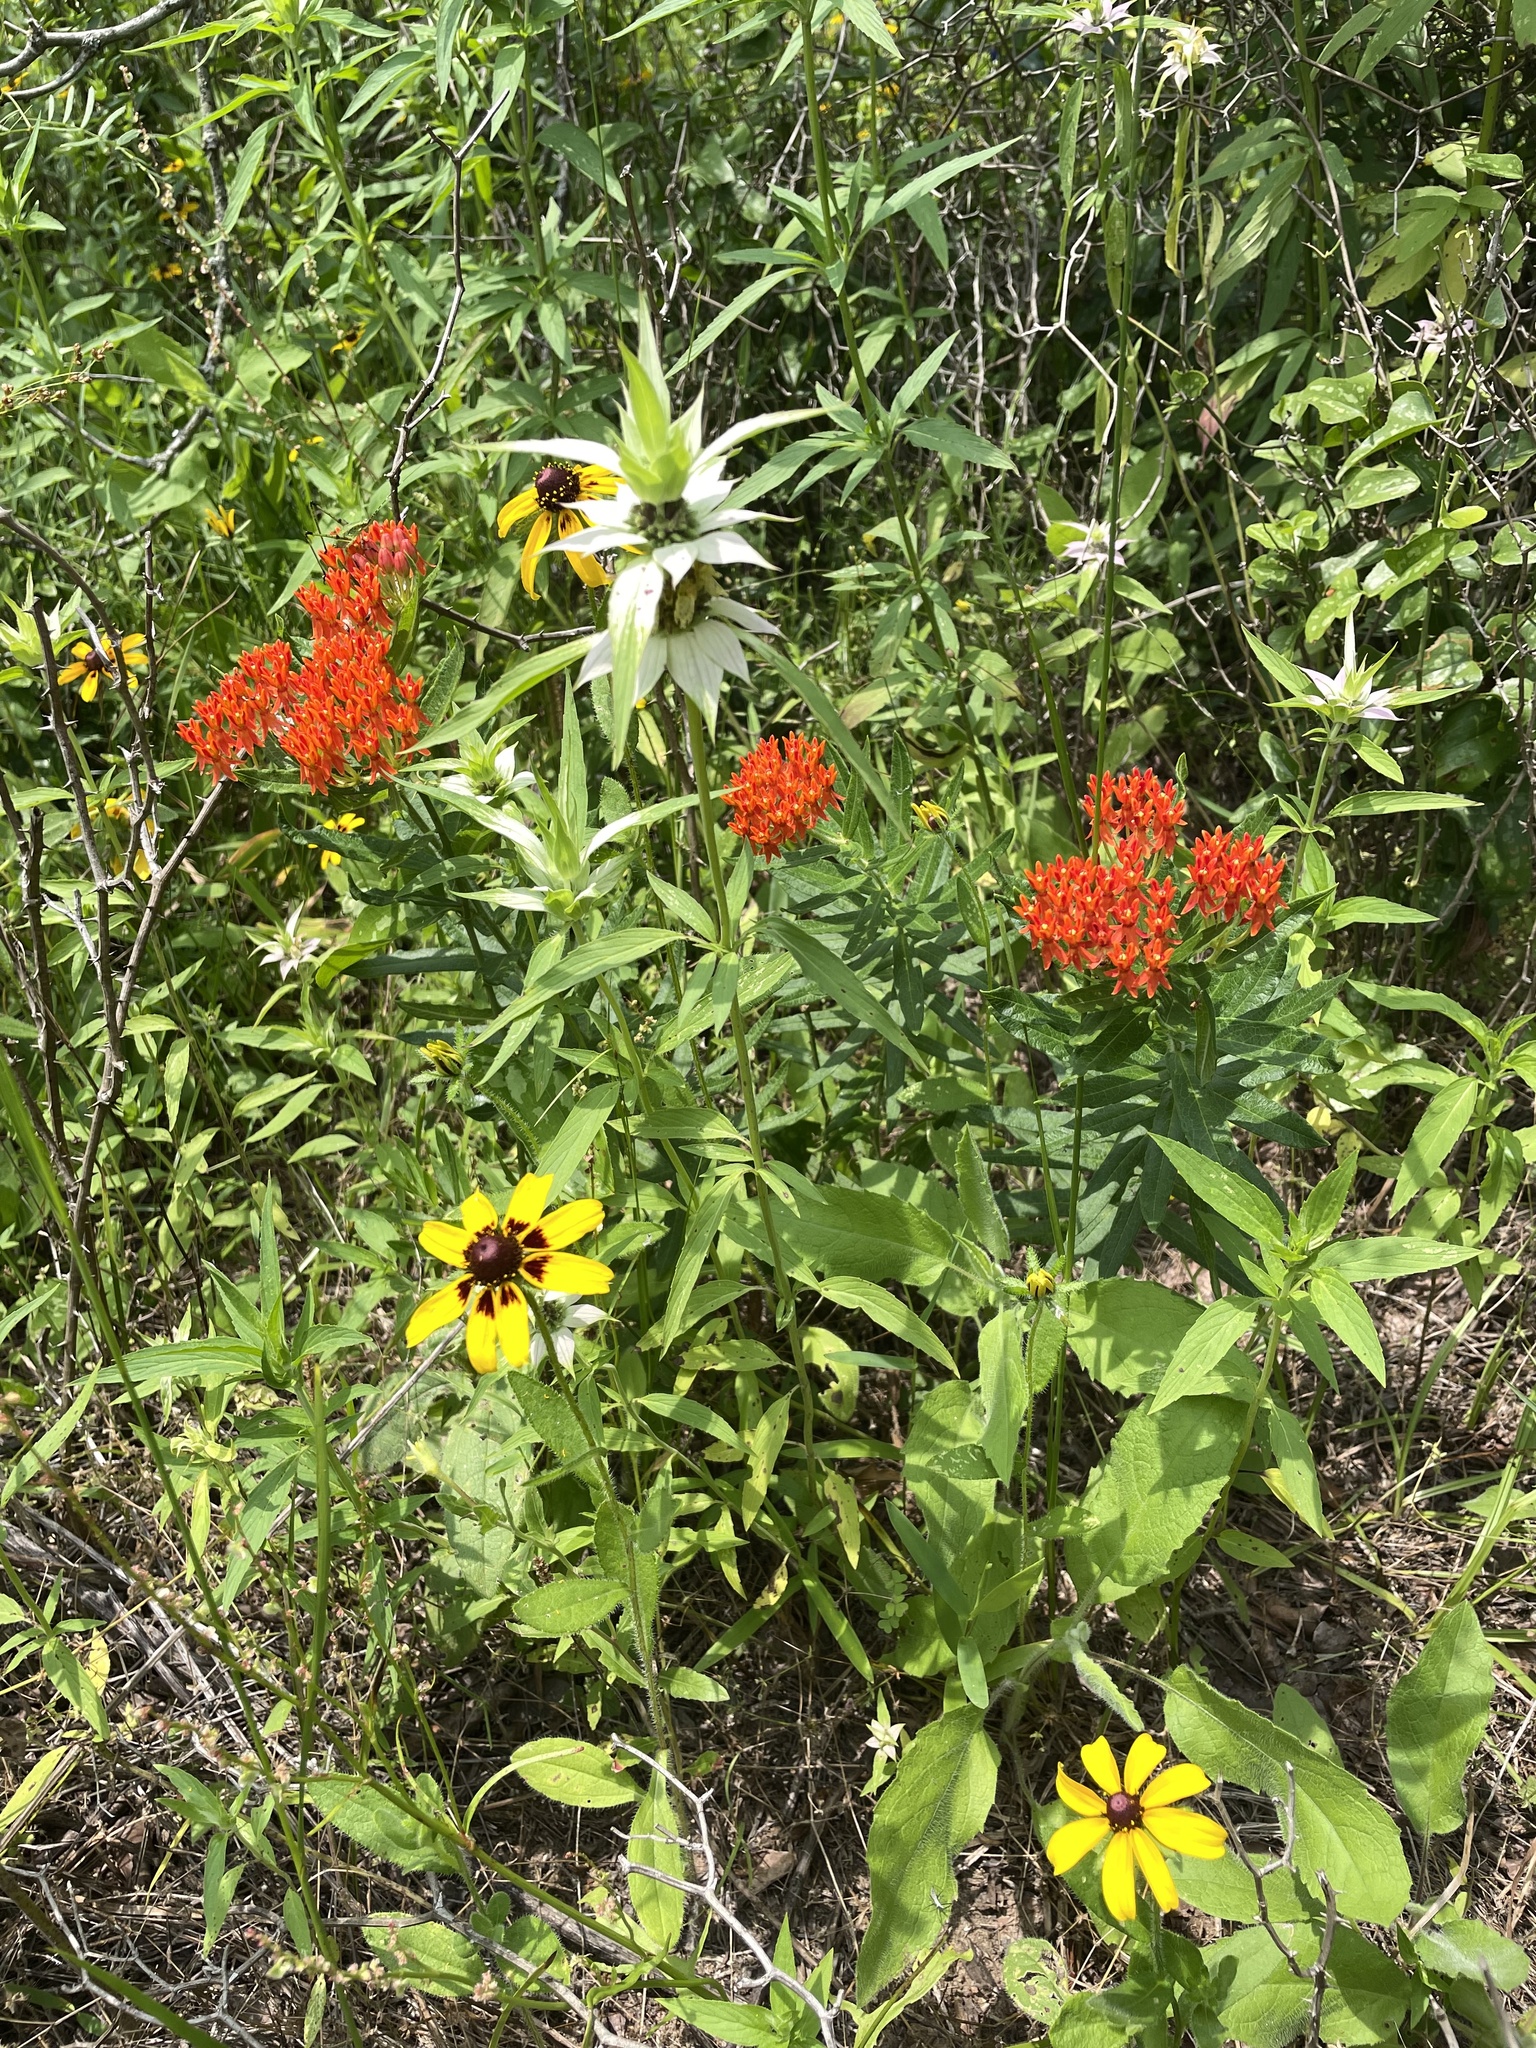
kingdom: Plantae
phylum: Tracheophyta
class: Magnoliopsida
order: Gentianales
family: Apocynaceae
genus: Asclepias
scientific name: Asclepias tuberosa
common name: Butterfly milkweed
